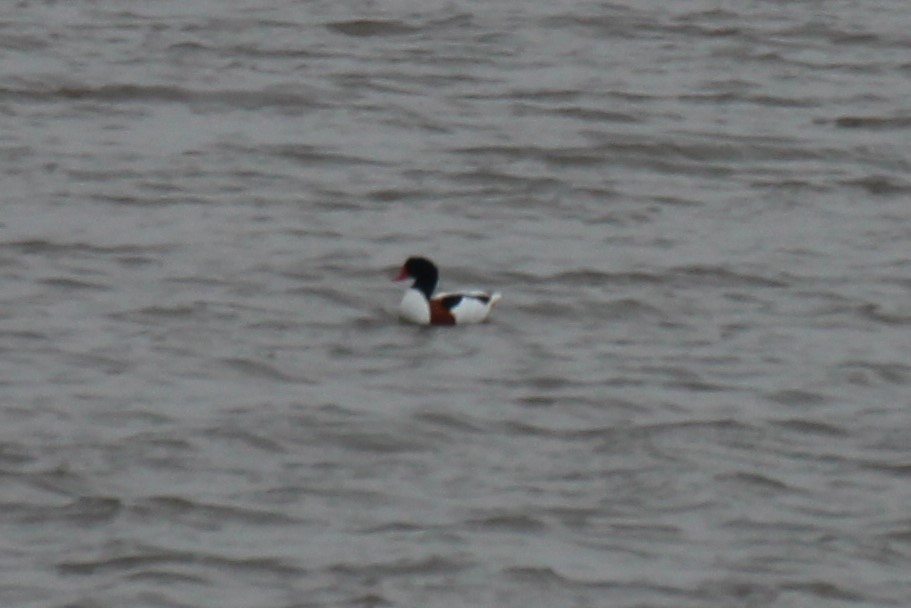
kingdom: Animalia
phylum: Chordata
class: Aves
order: Anseriformes
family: Anatidae
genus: Tadorna
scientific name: Tadorna tadorna
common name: Common shelduck
